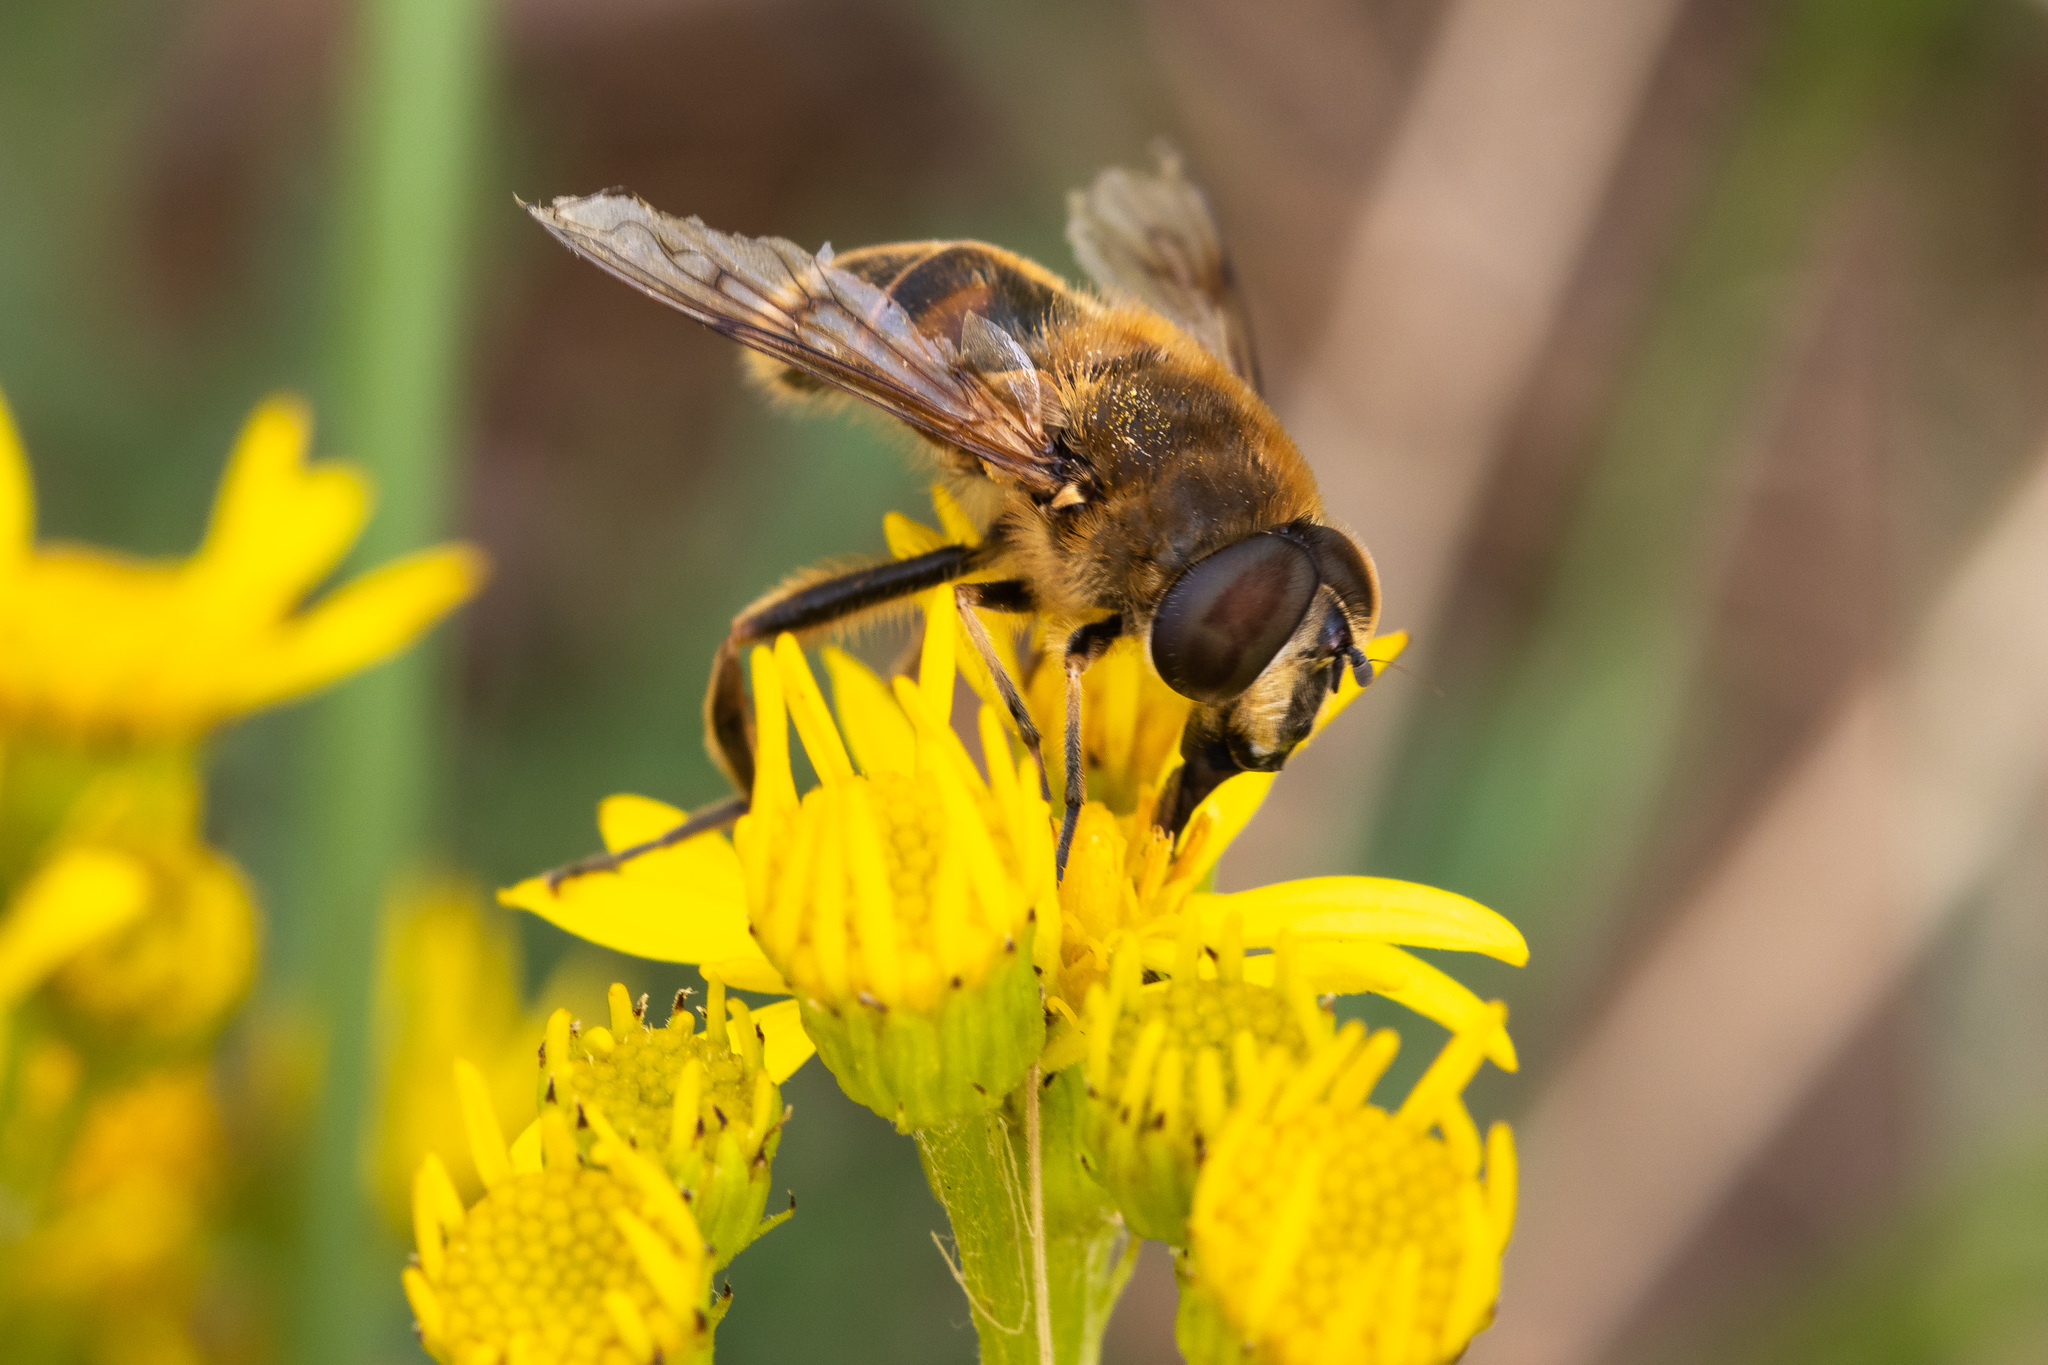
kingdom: Animalia
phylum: Arthropoda
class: Insecta
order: Diptera
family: Syrphidae
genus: Eristalis
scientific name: Eristalis tenax
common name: Drone fly
